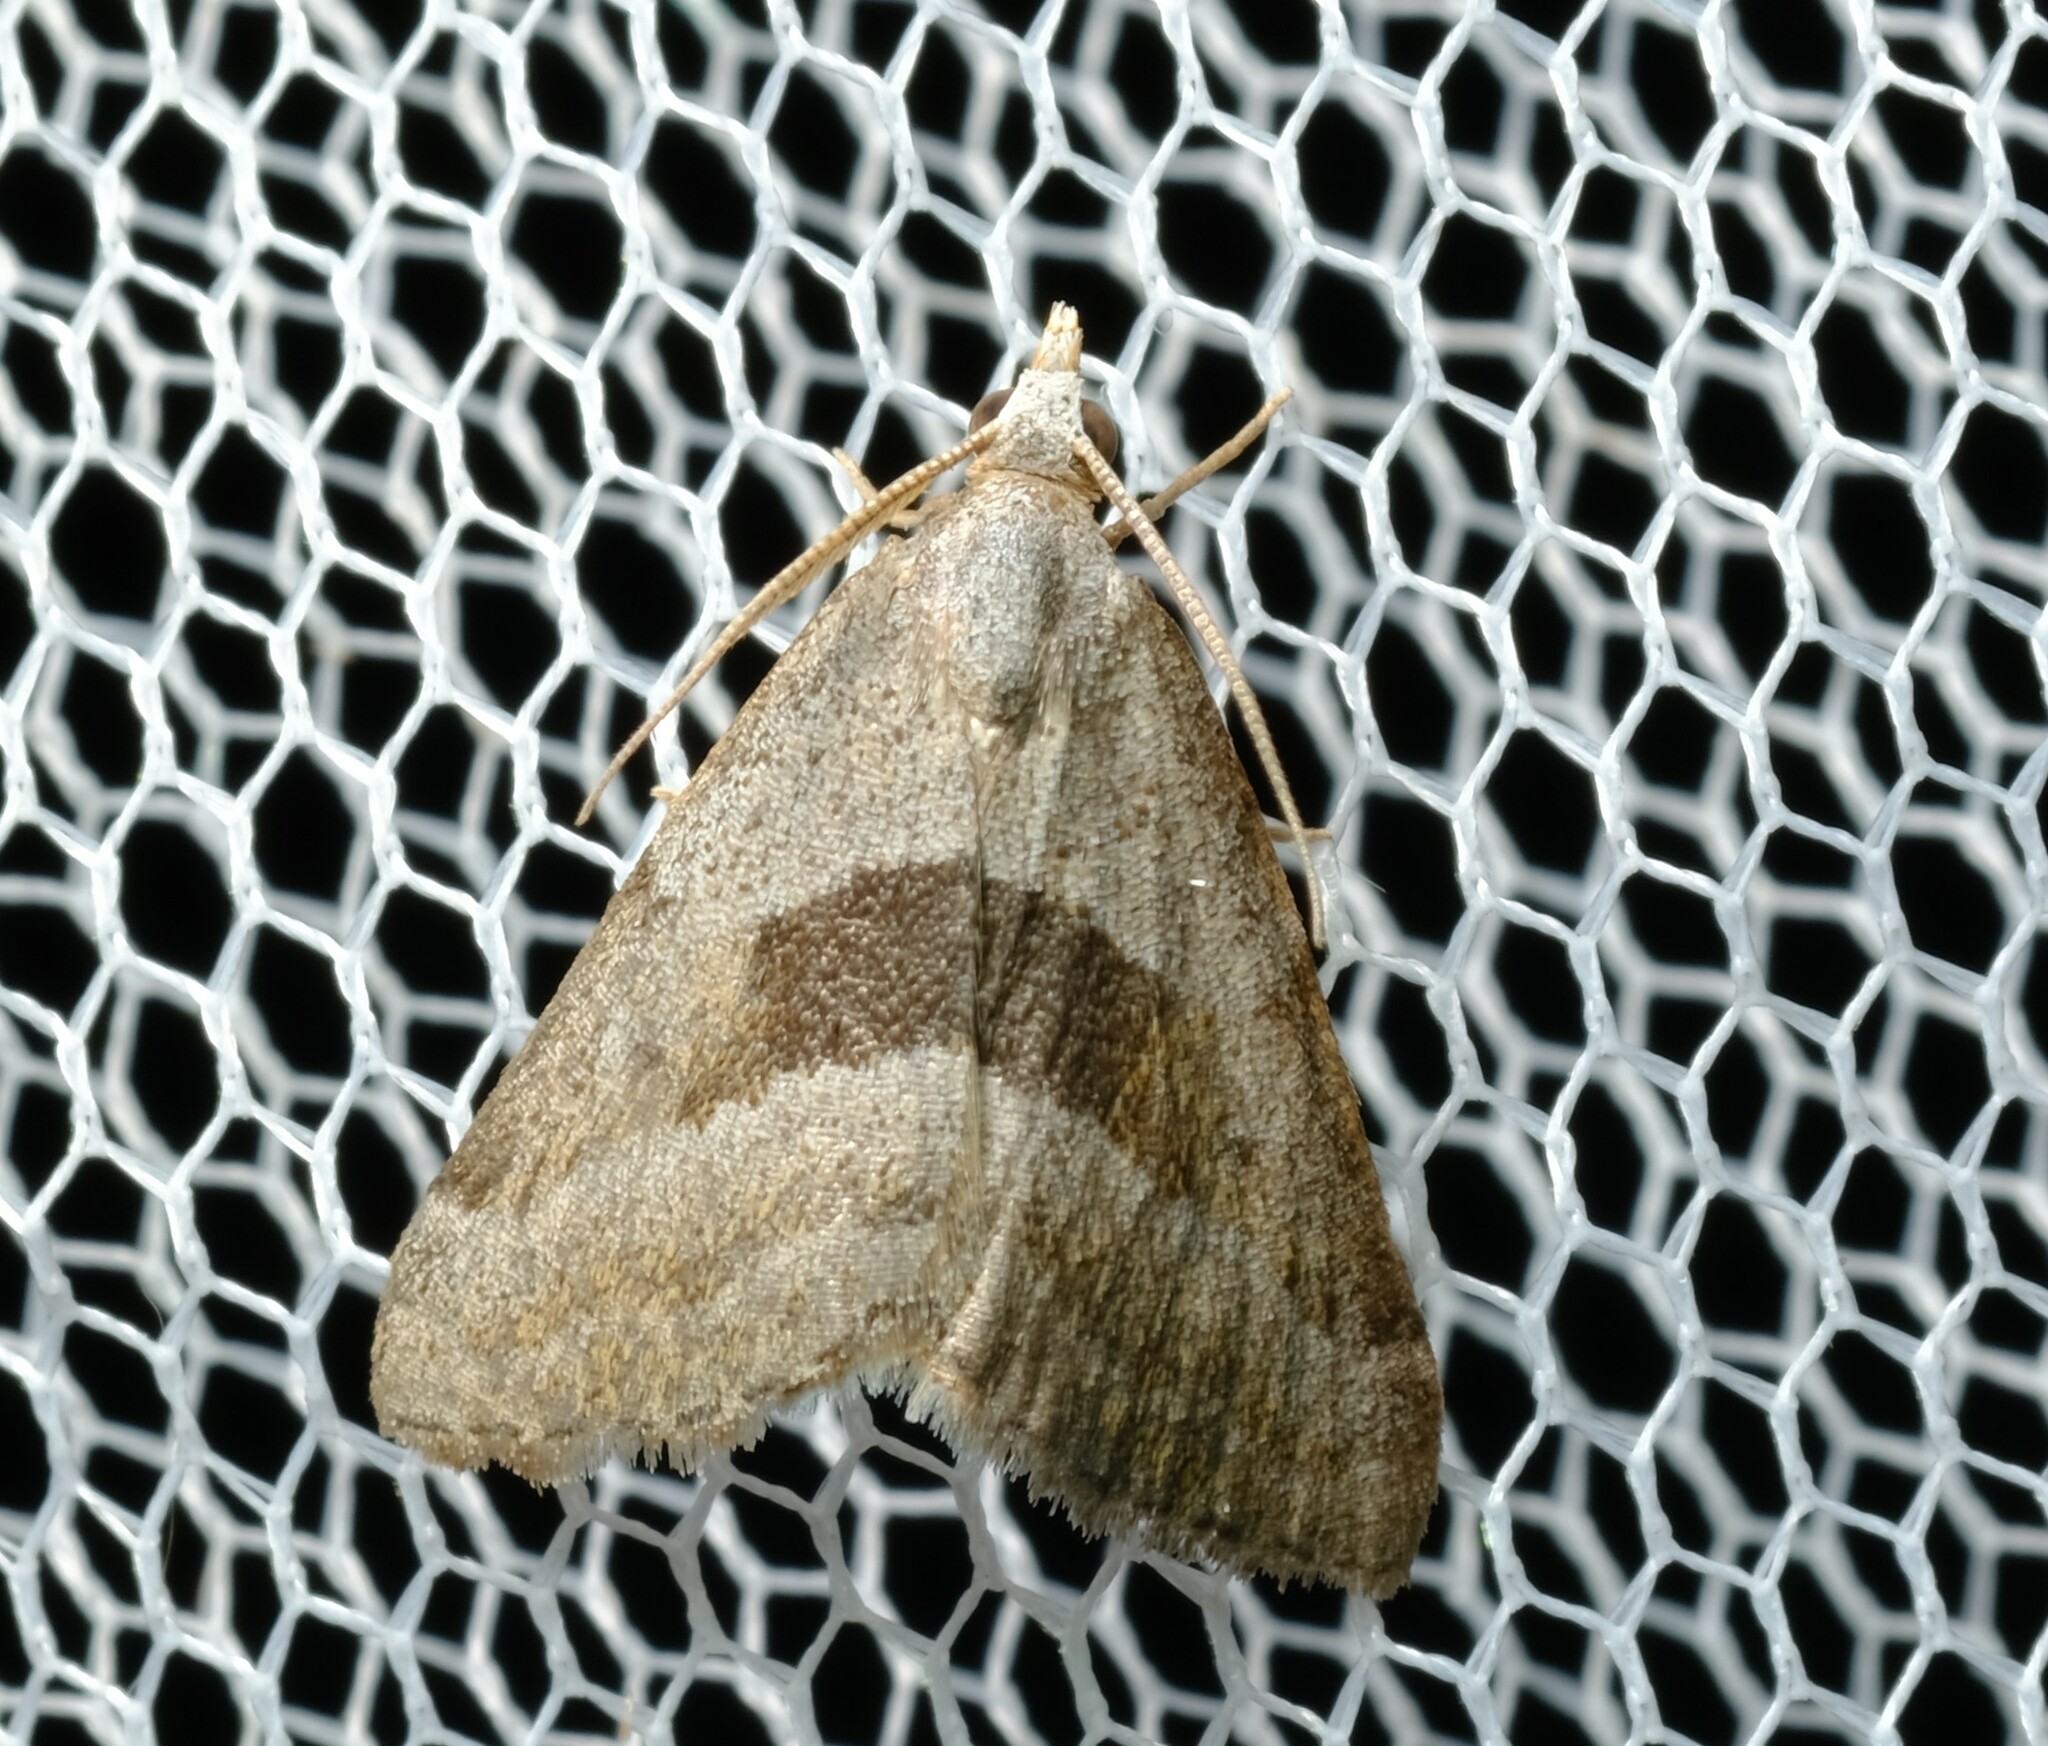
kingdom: Animalia
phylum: Arthropoda
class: Insecta
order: Lepidoptera
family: Geometridae
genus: Dichromodes
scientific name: Dichromodes leptozona
